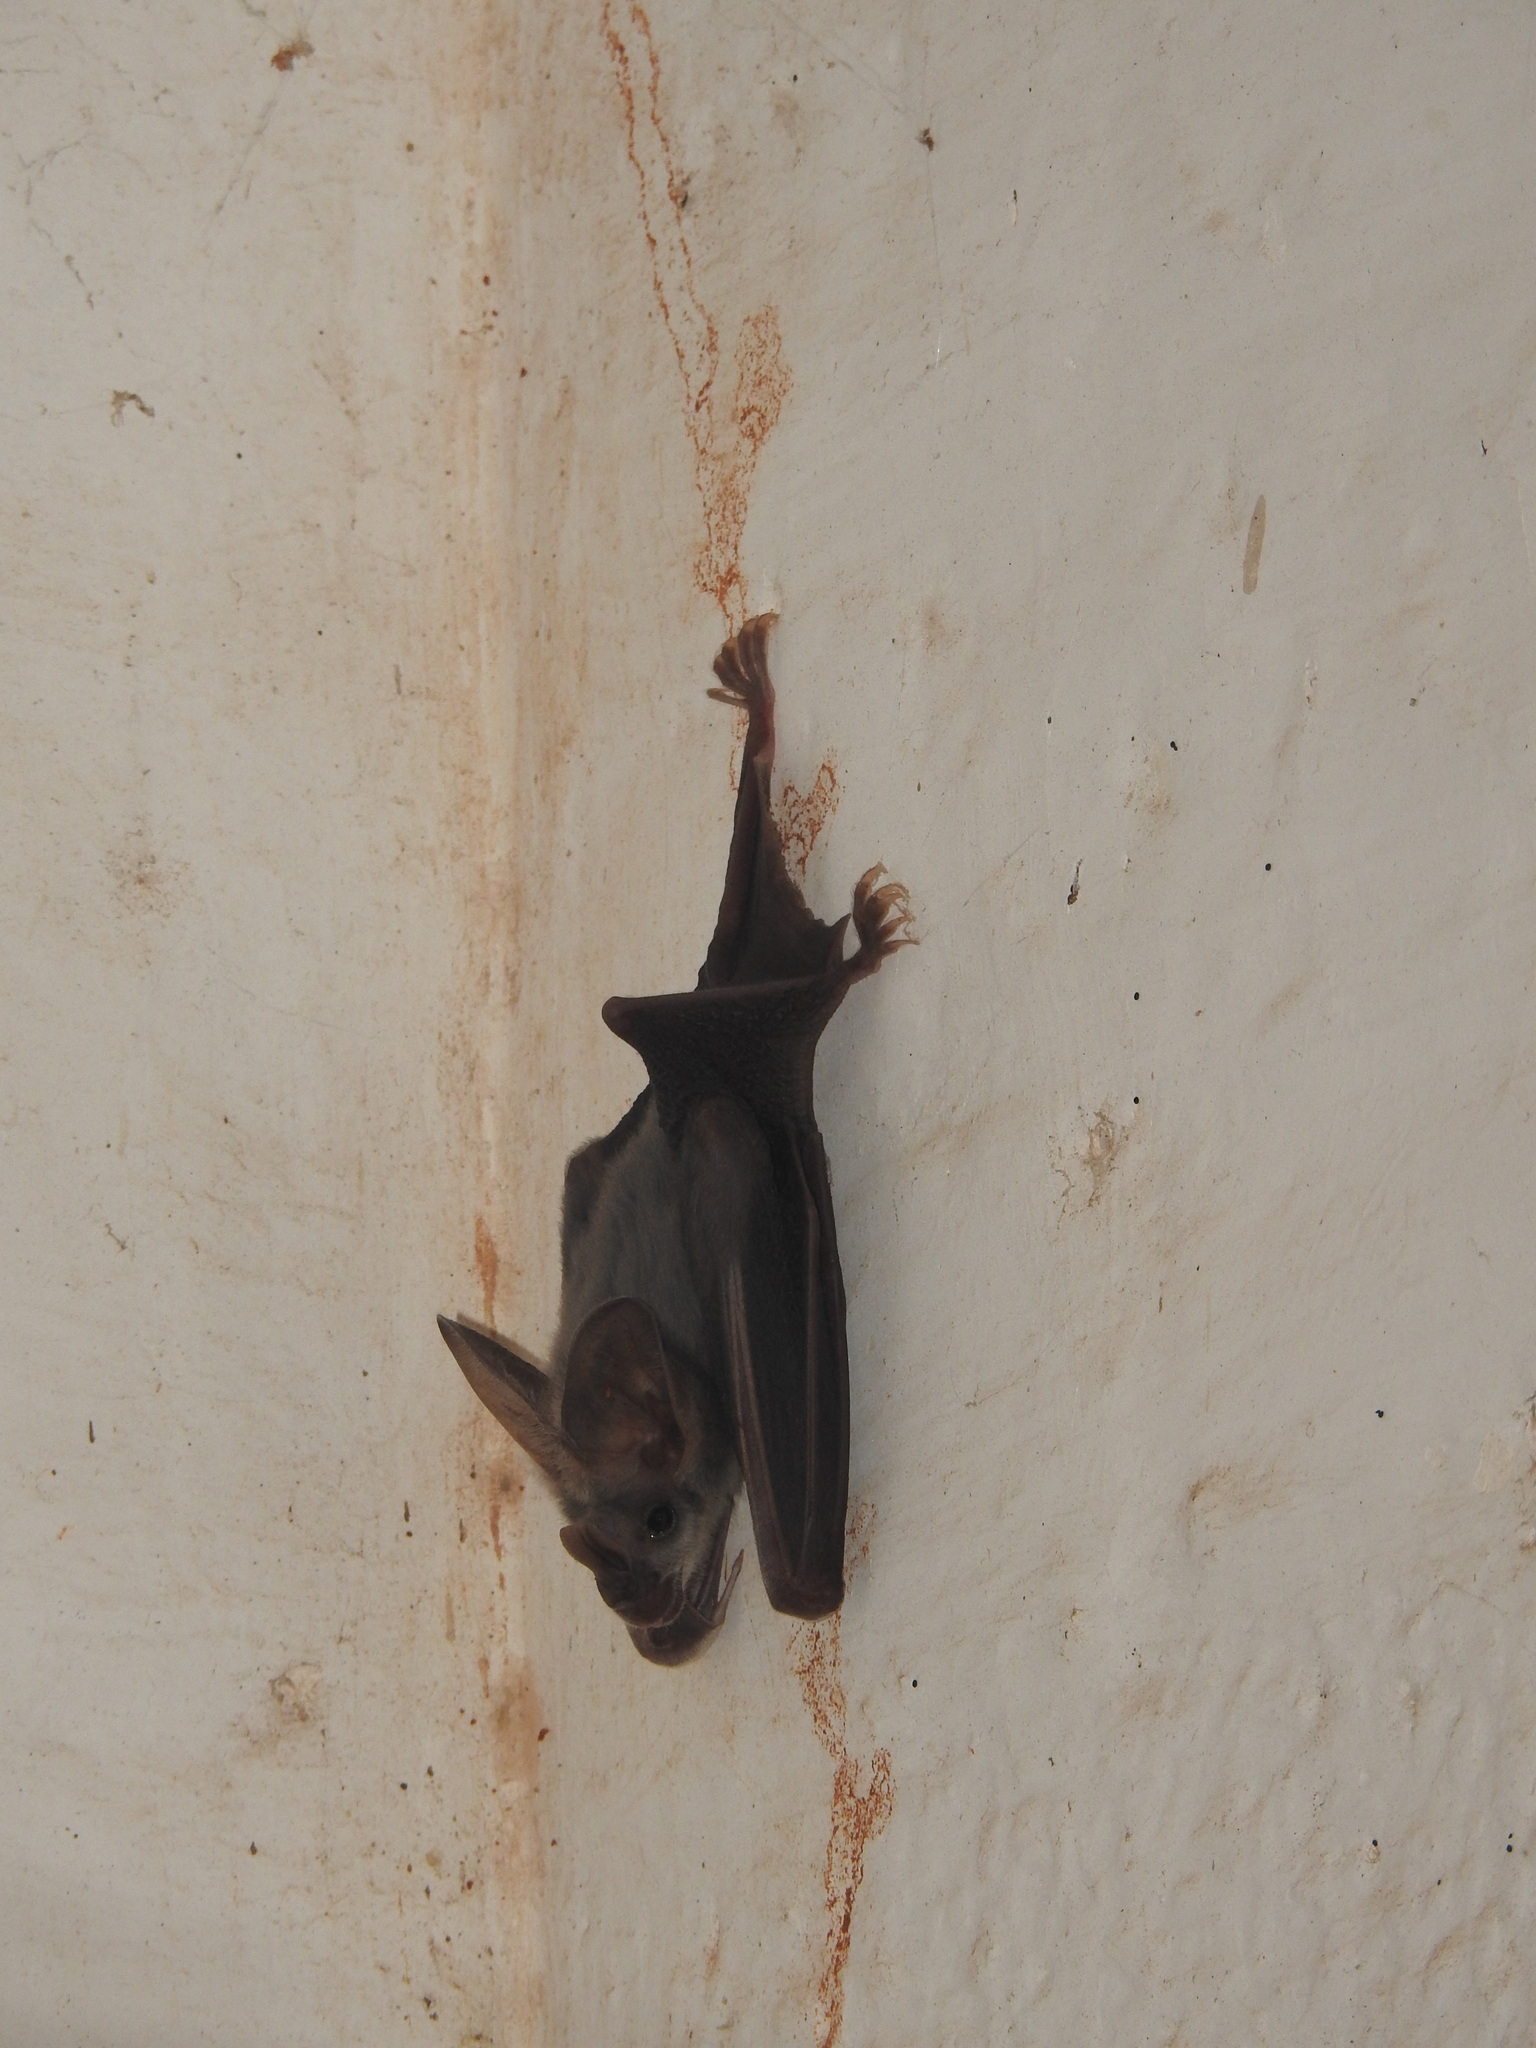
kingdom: Animalia
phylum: Chordata
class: Mammalia
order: Chiroptera
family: Megadermatidae
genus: Lyroderma
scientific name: Lyroderma lyra
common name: Greater false vampire bat
